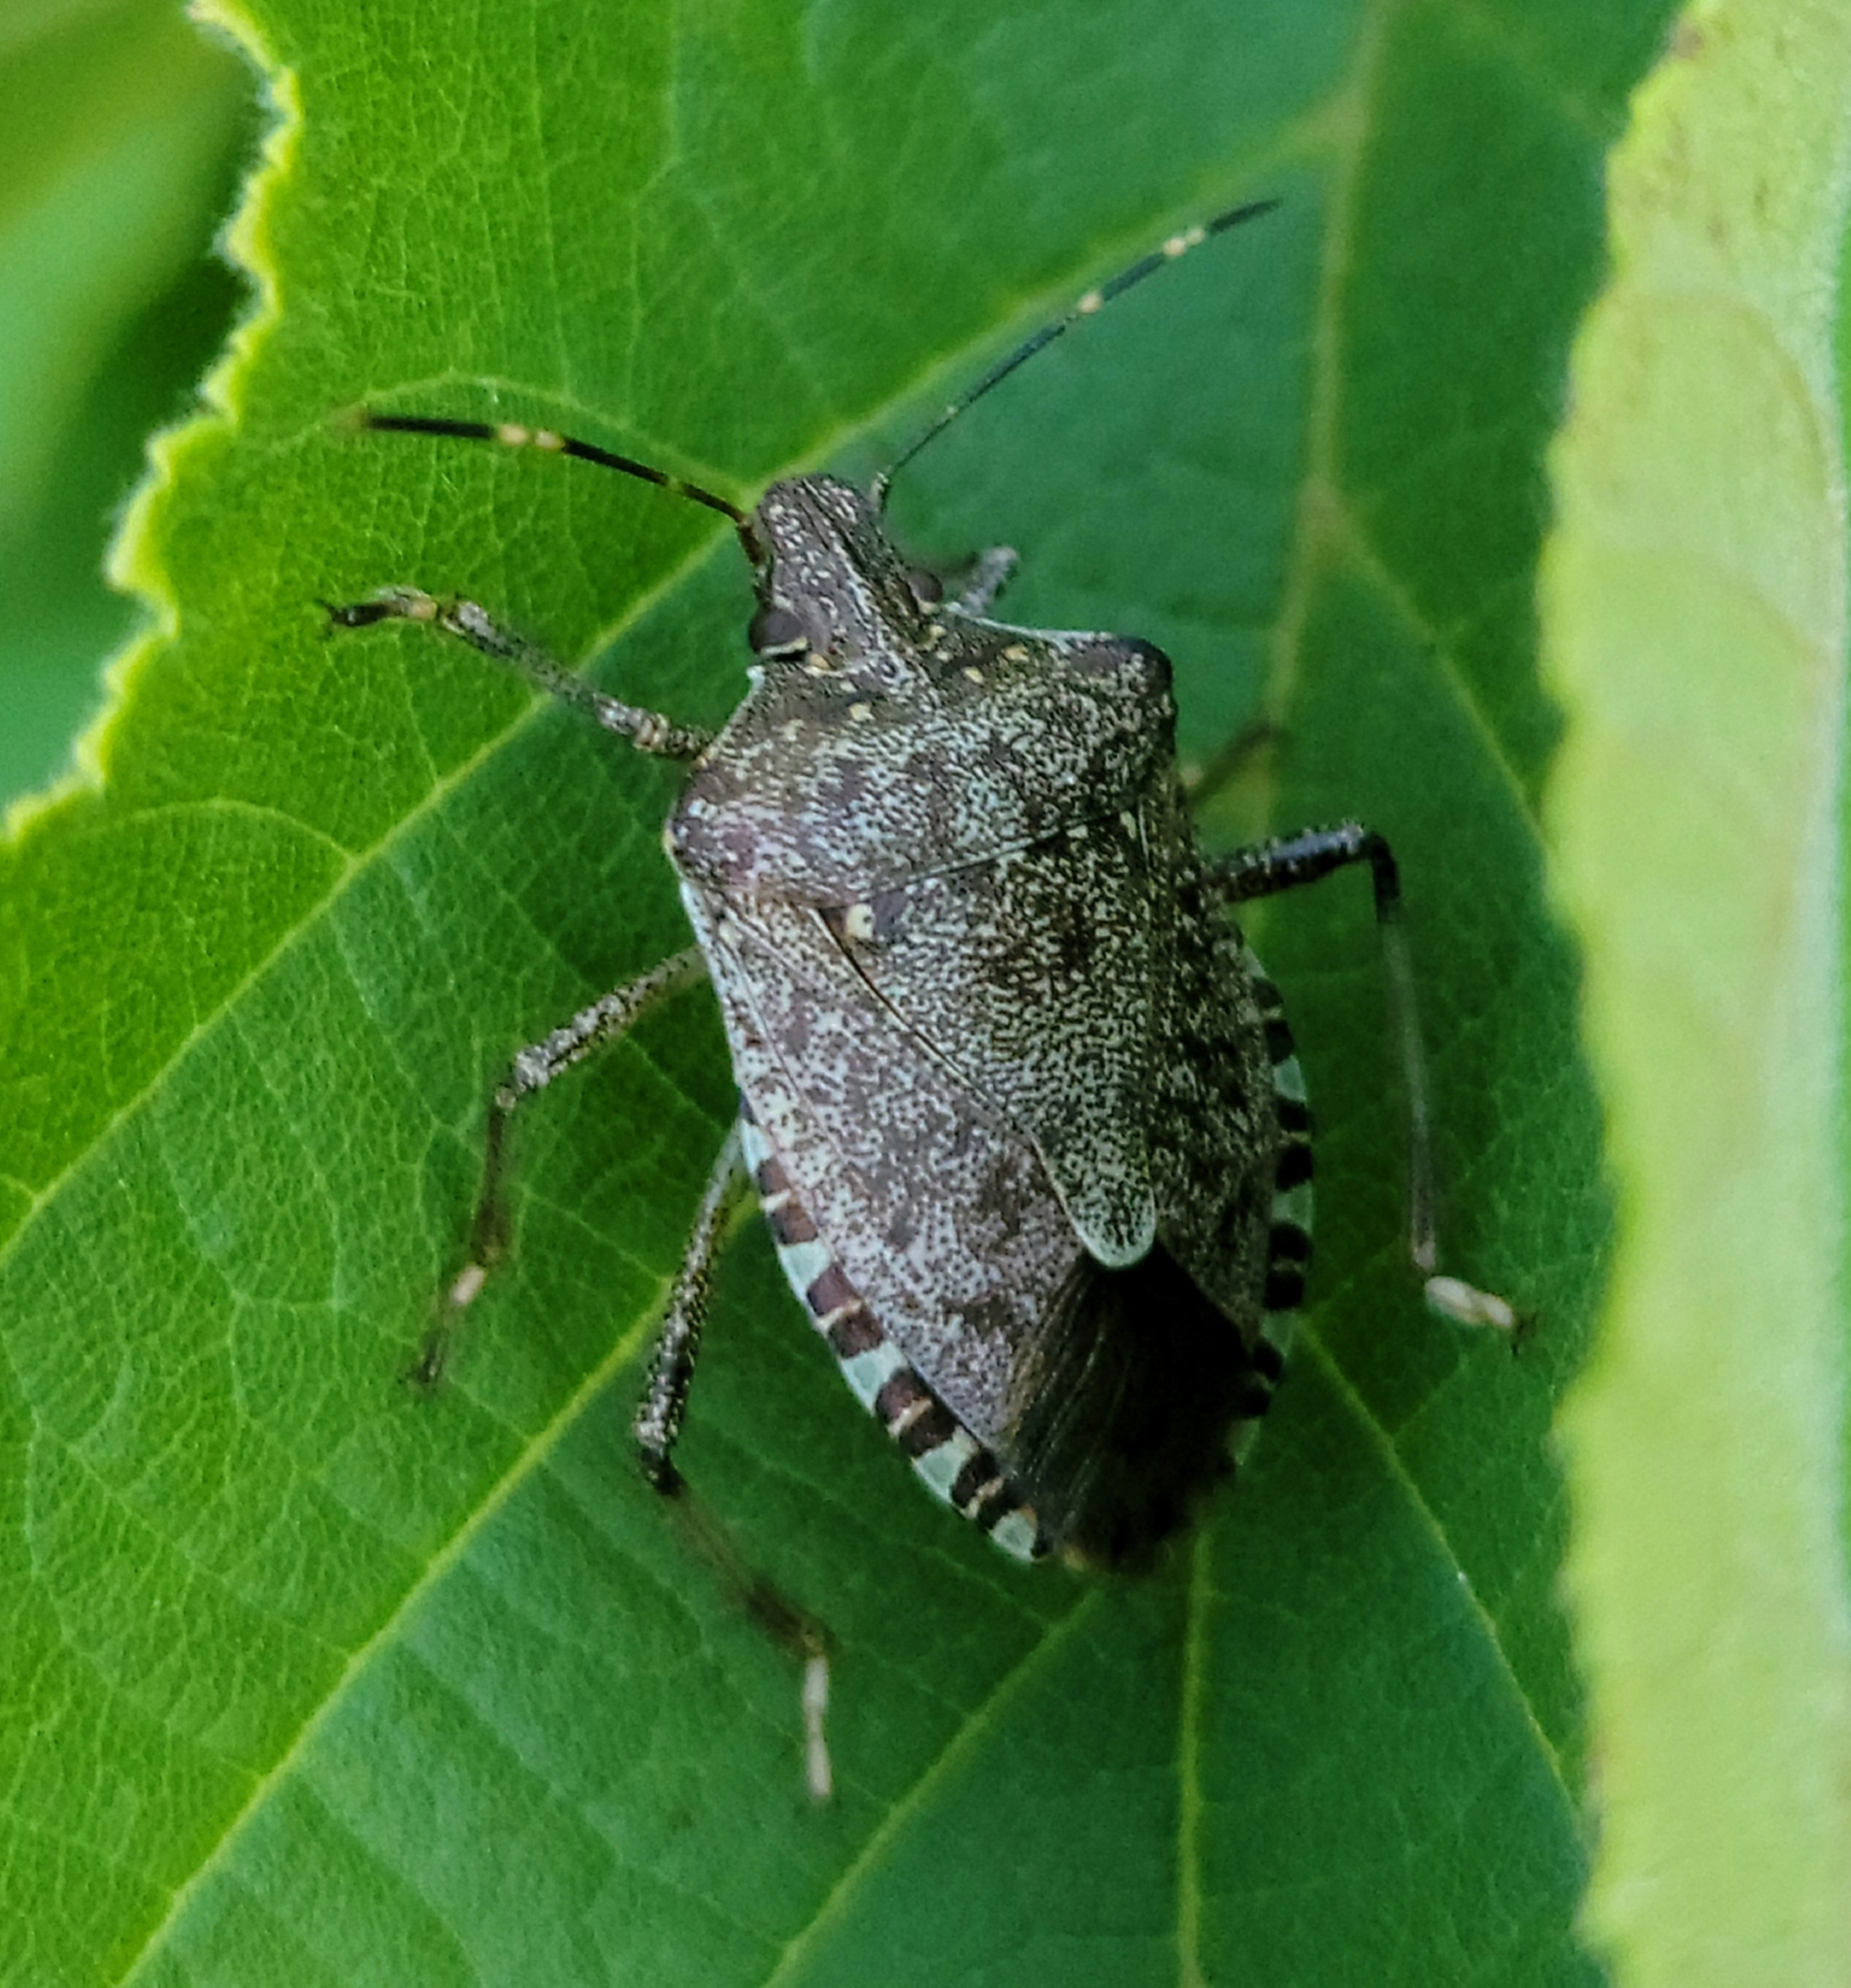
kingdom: Animalia
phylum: Arthropoda
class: Insecta
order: Hemiptera
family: Pentatomidae
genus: Halyomorpha
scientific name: Halyomorpha halys
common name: Brown marmorated stink bug
